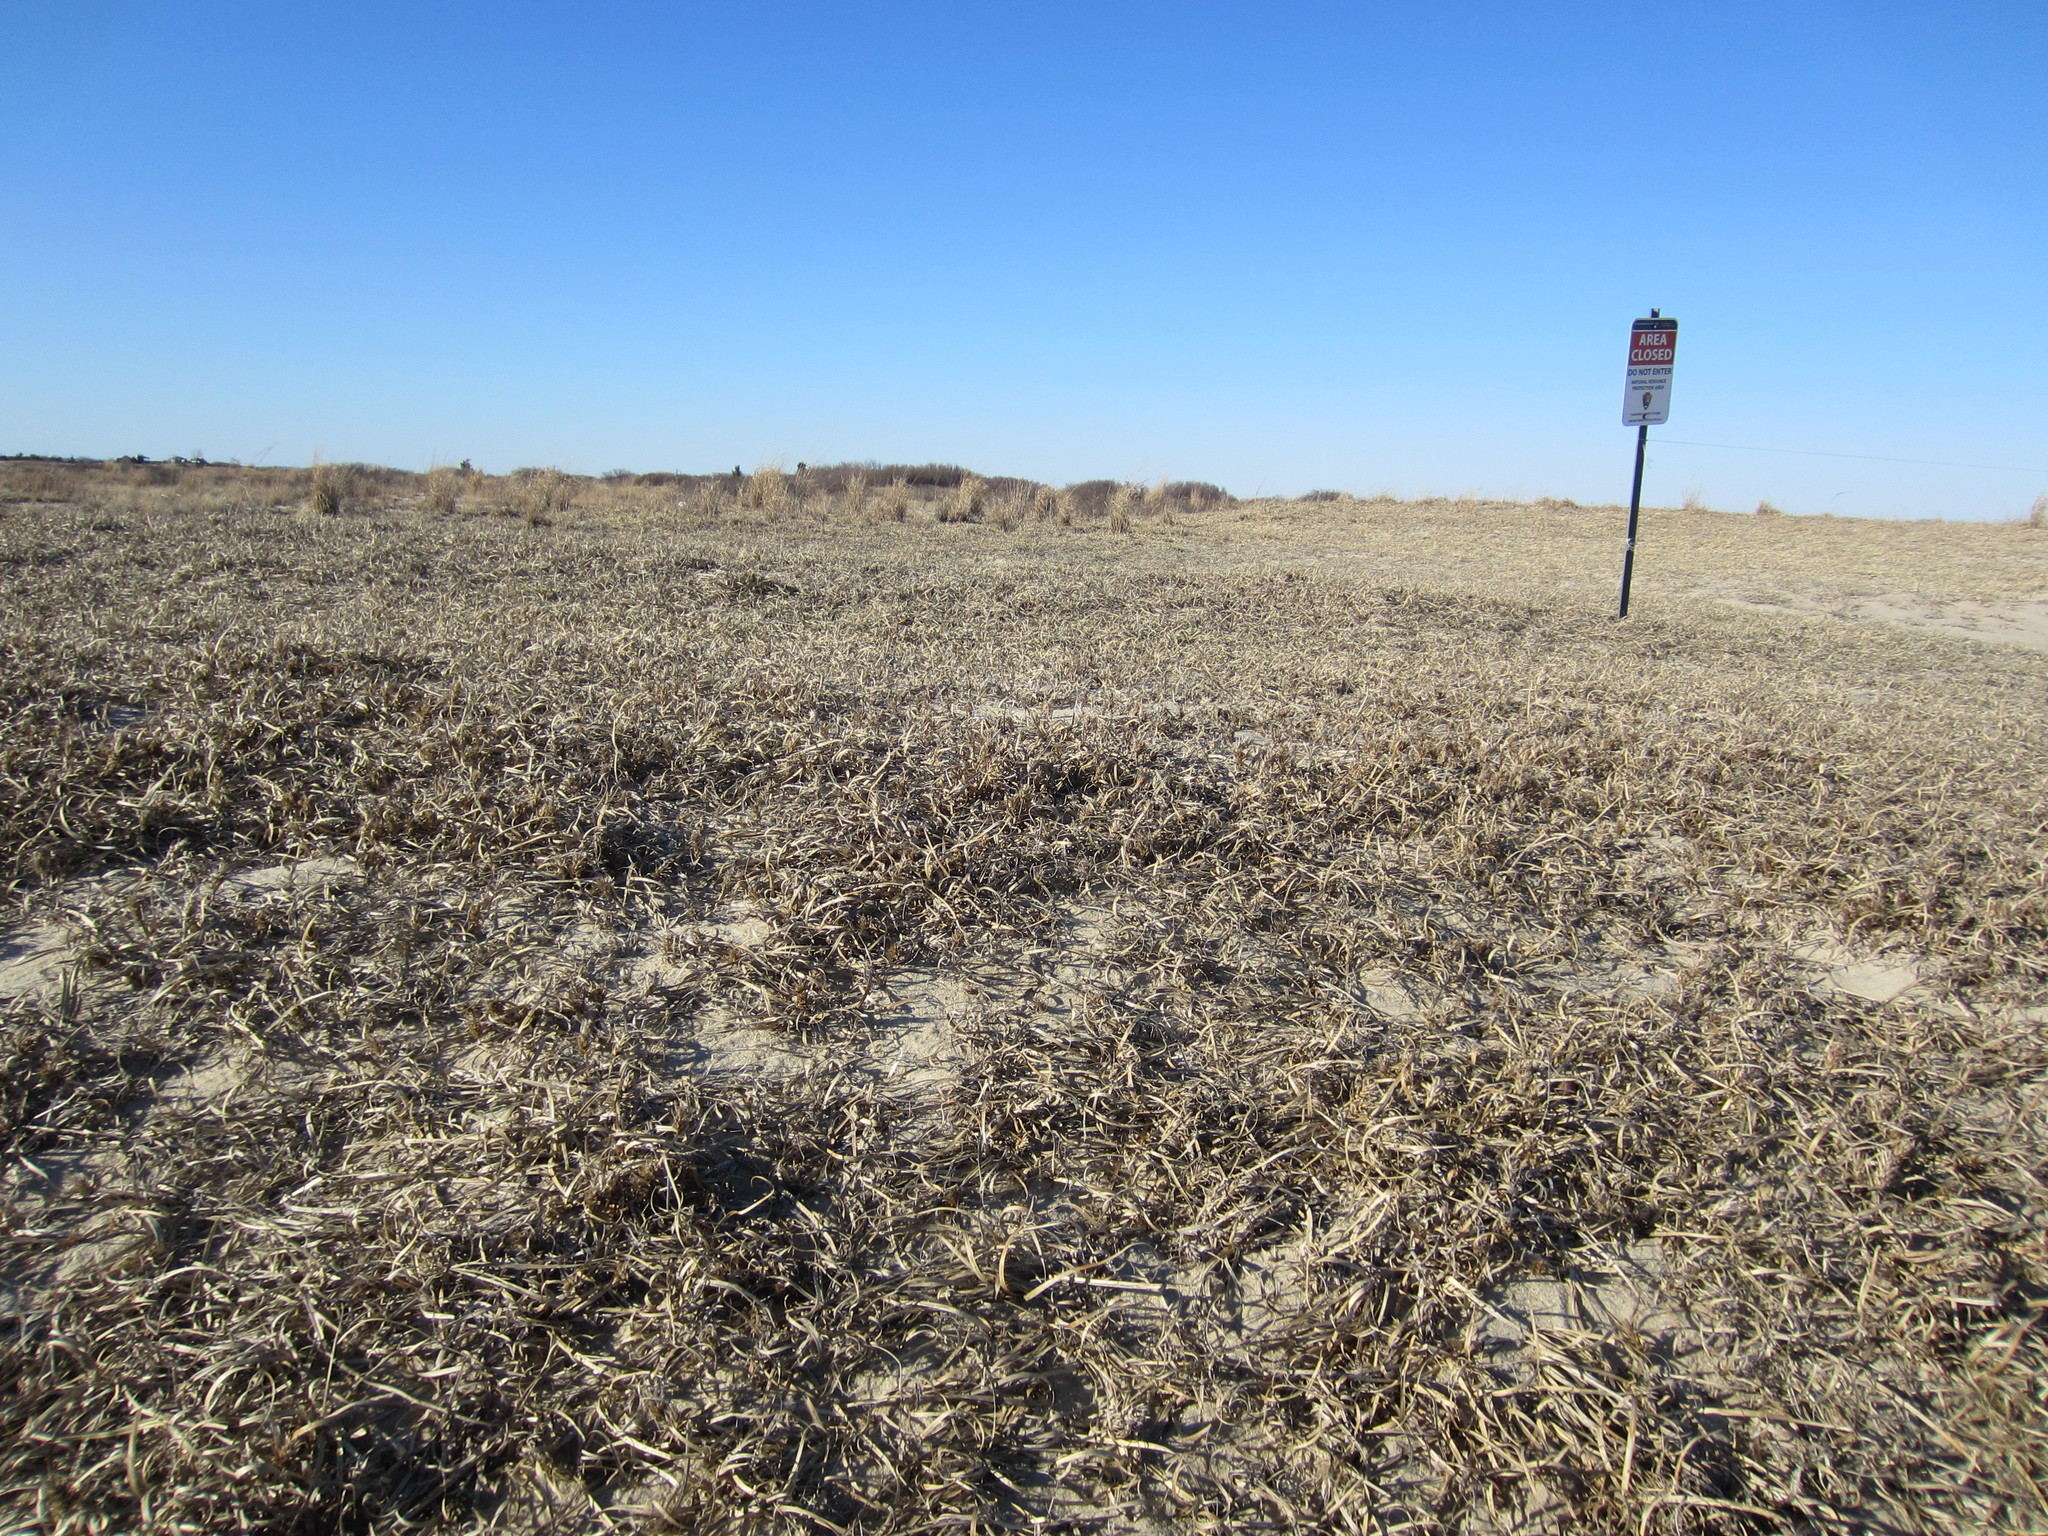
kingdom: Plantae
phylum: Tracheophyta
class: Liliopsida
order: Poales
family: Cyperaceae
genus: Carex
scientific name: Carex kobomugi
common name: Japanese sedge
